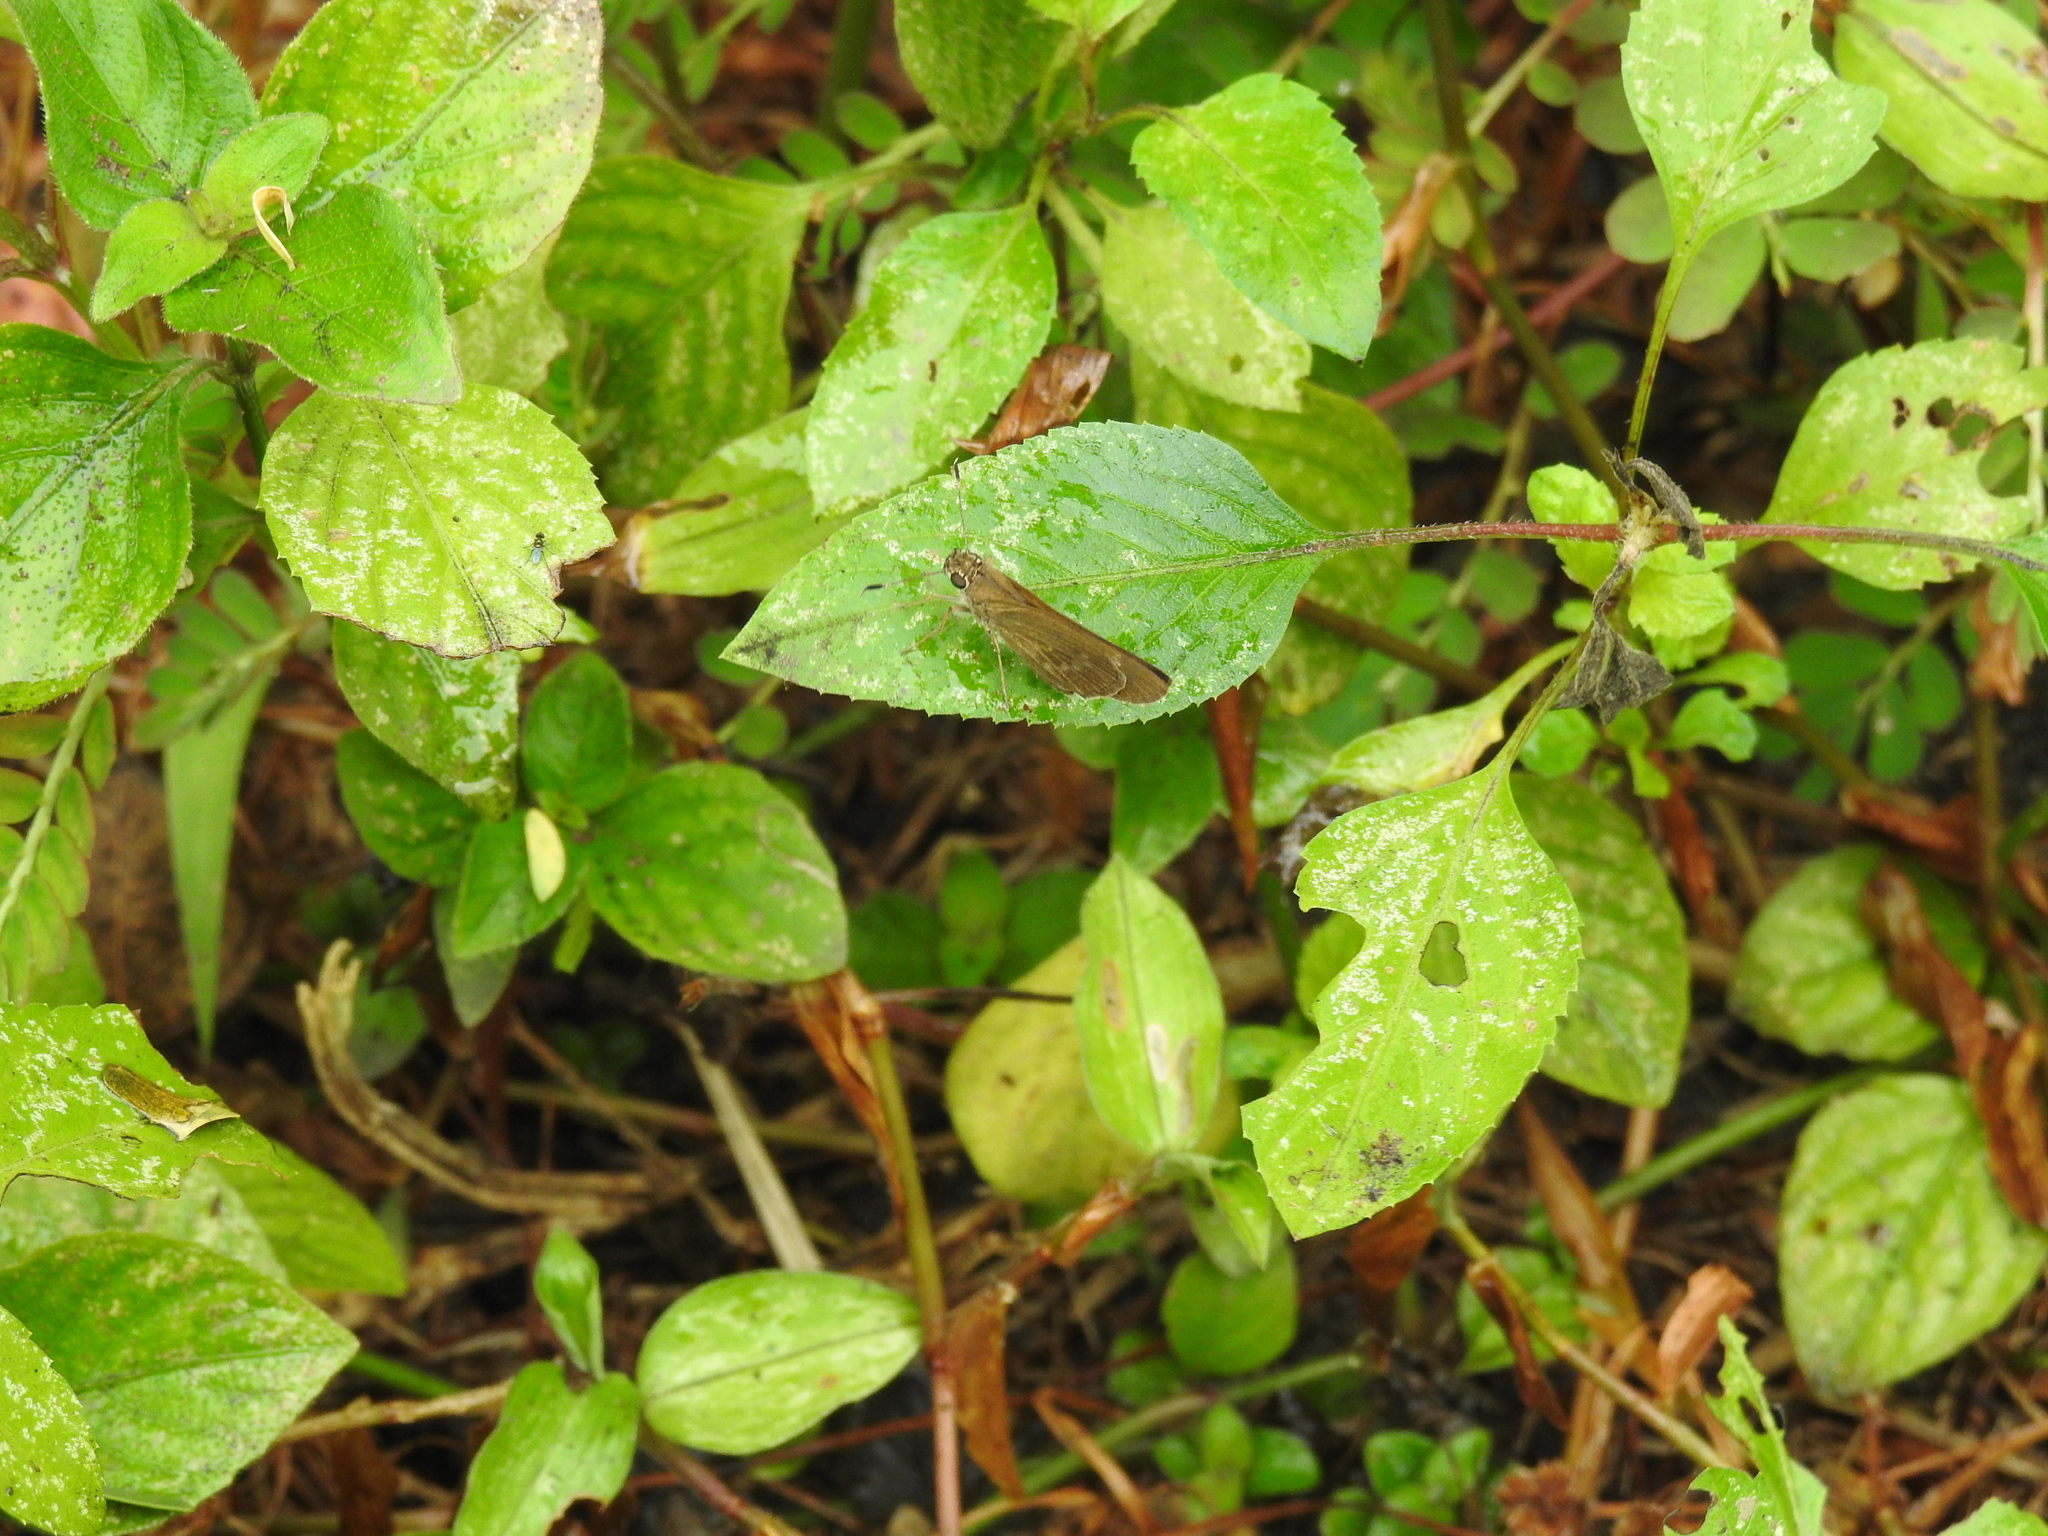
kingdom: Animalia
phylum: Arthropoda
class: Insecta
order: Lepidoptera
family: Hesperiidae
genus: Cymaenes
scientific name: Cymaenes tripunctus
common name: Dingy dotted skipper
